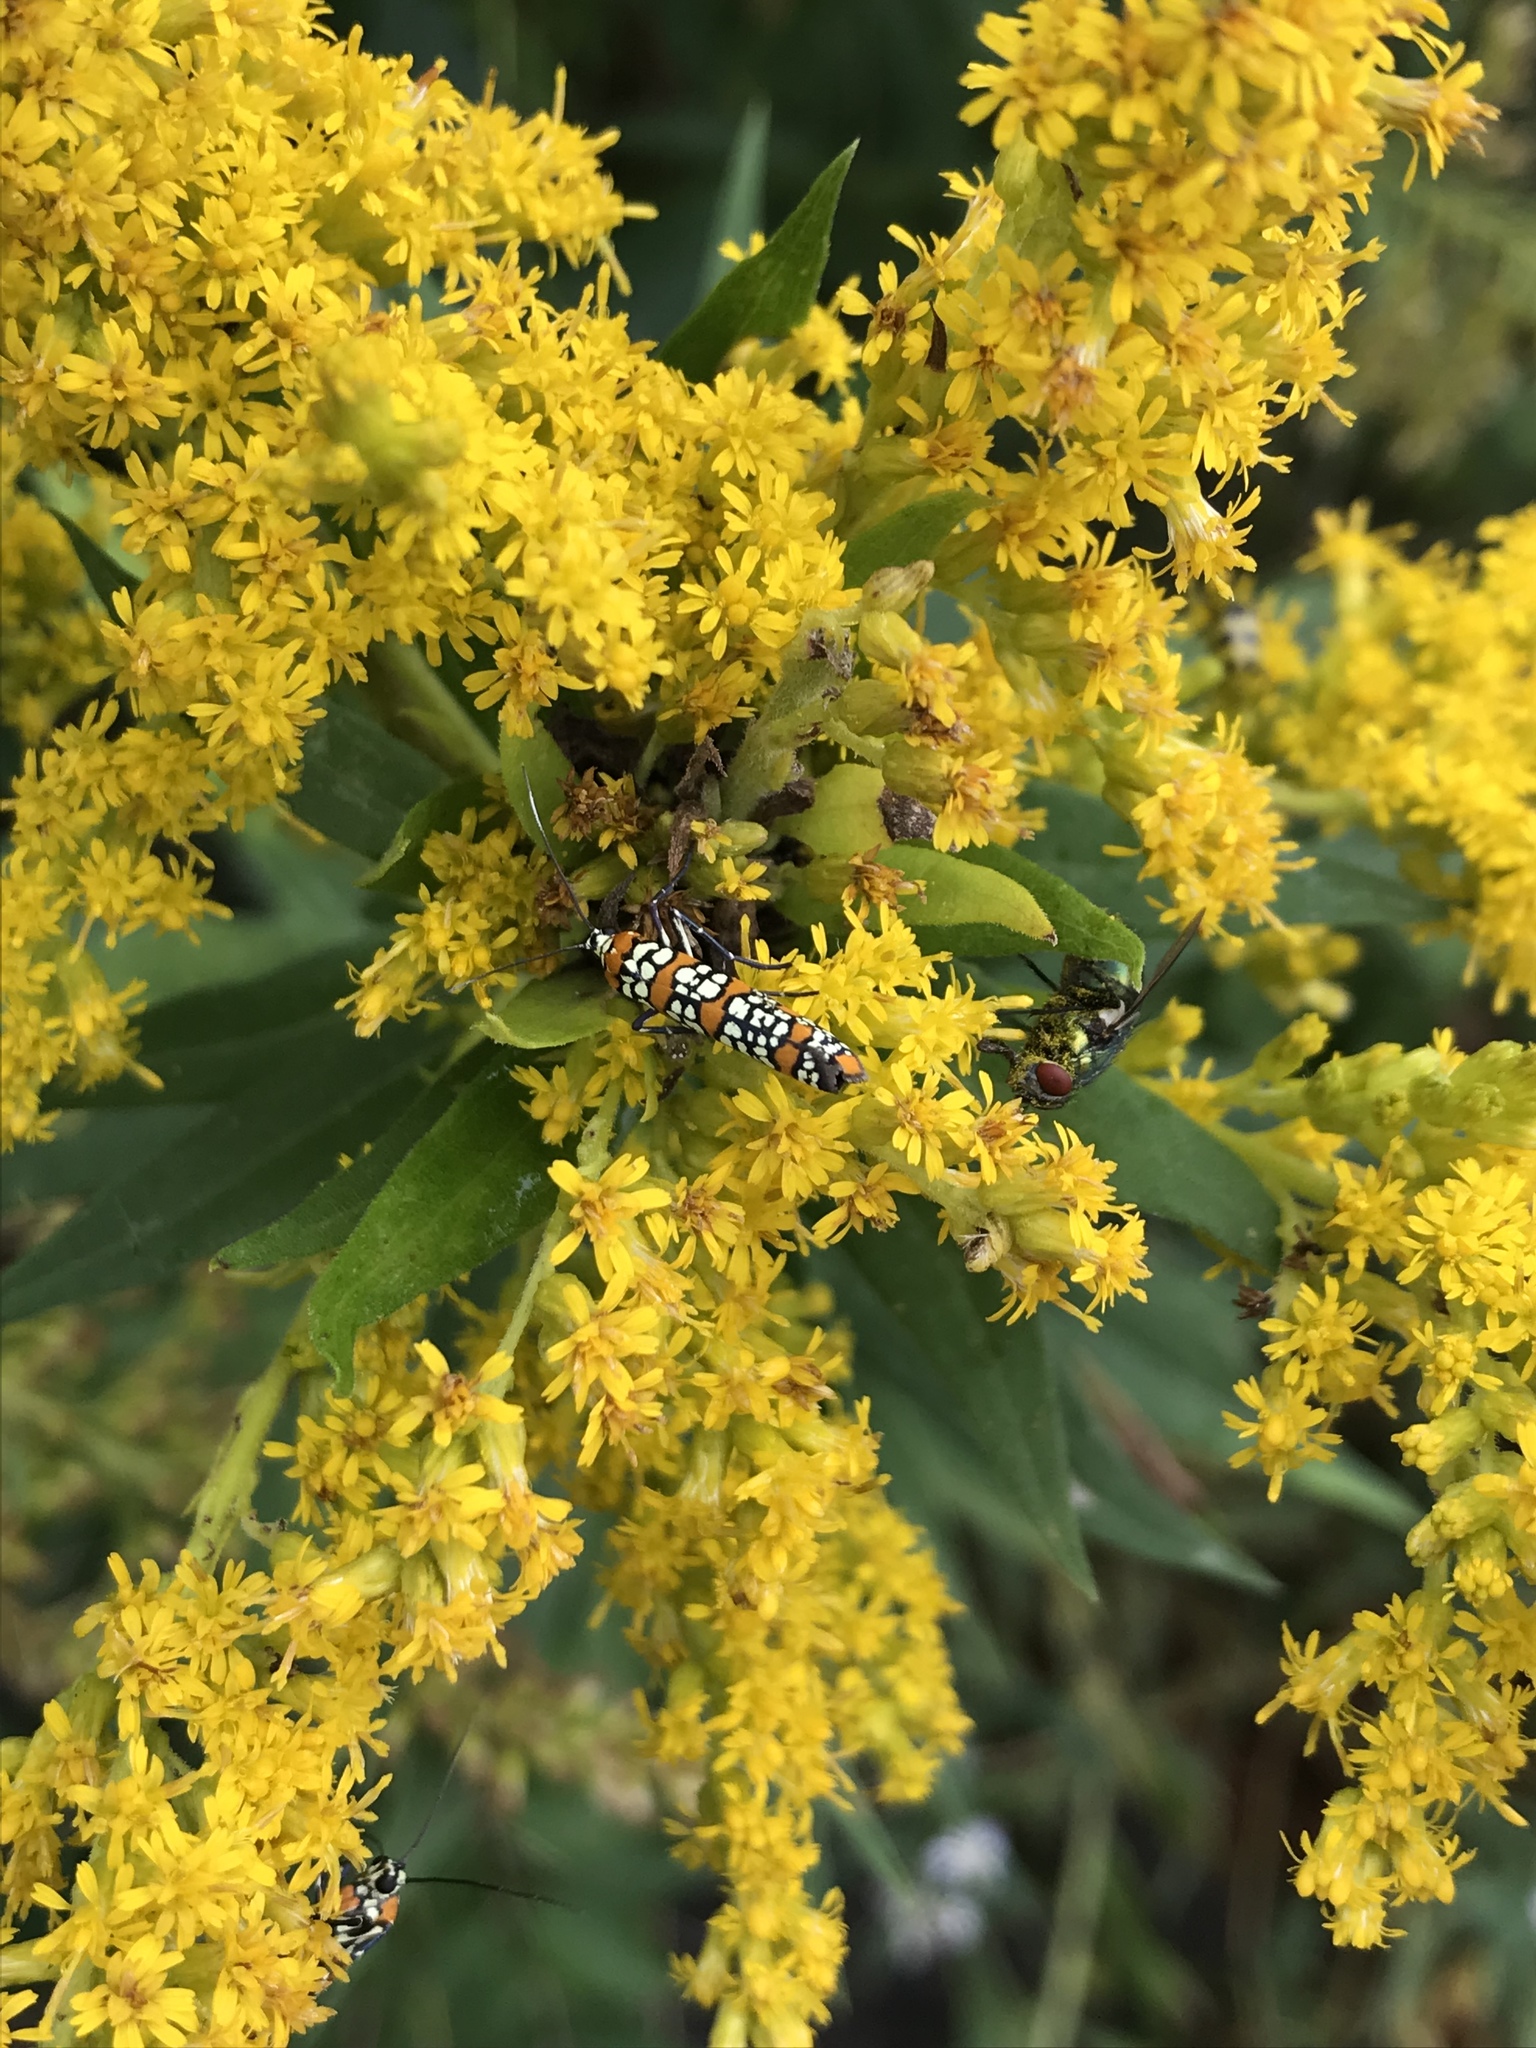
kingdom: Animalia
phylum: Arthropoda
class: Insecta
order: Lepidoptera
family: Attevidae
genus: Atteva
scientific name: Atteva punctella
